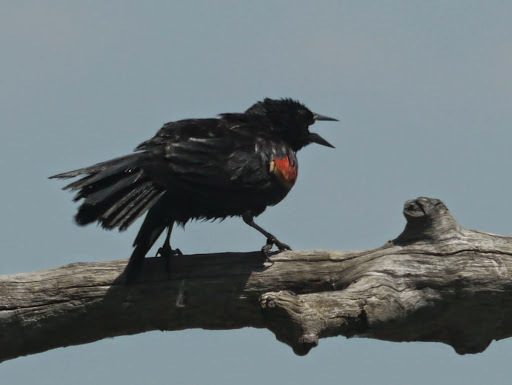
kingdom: Animalia
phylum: Chordata
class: Aves
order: Passeriformes
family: Icteridae
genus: Agelaius
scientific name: Agelaius phoeniceus
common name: Red-winged blackbird
